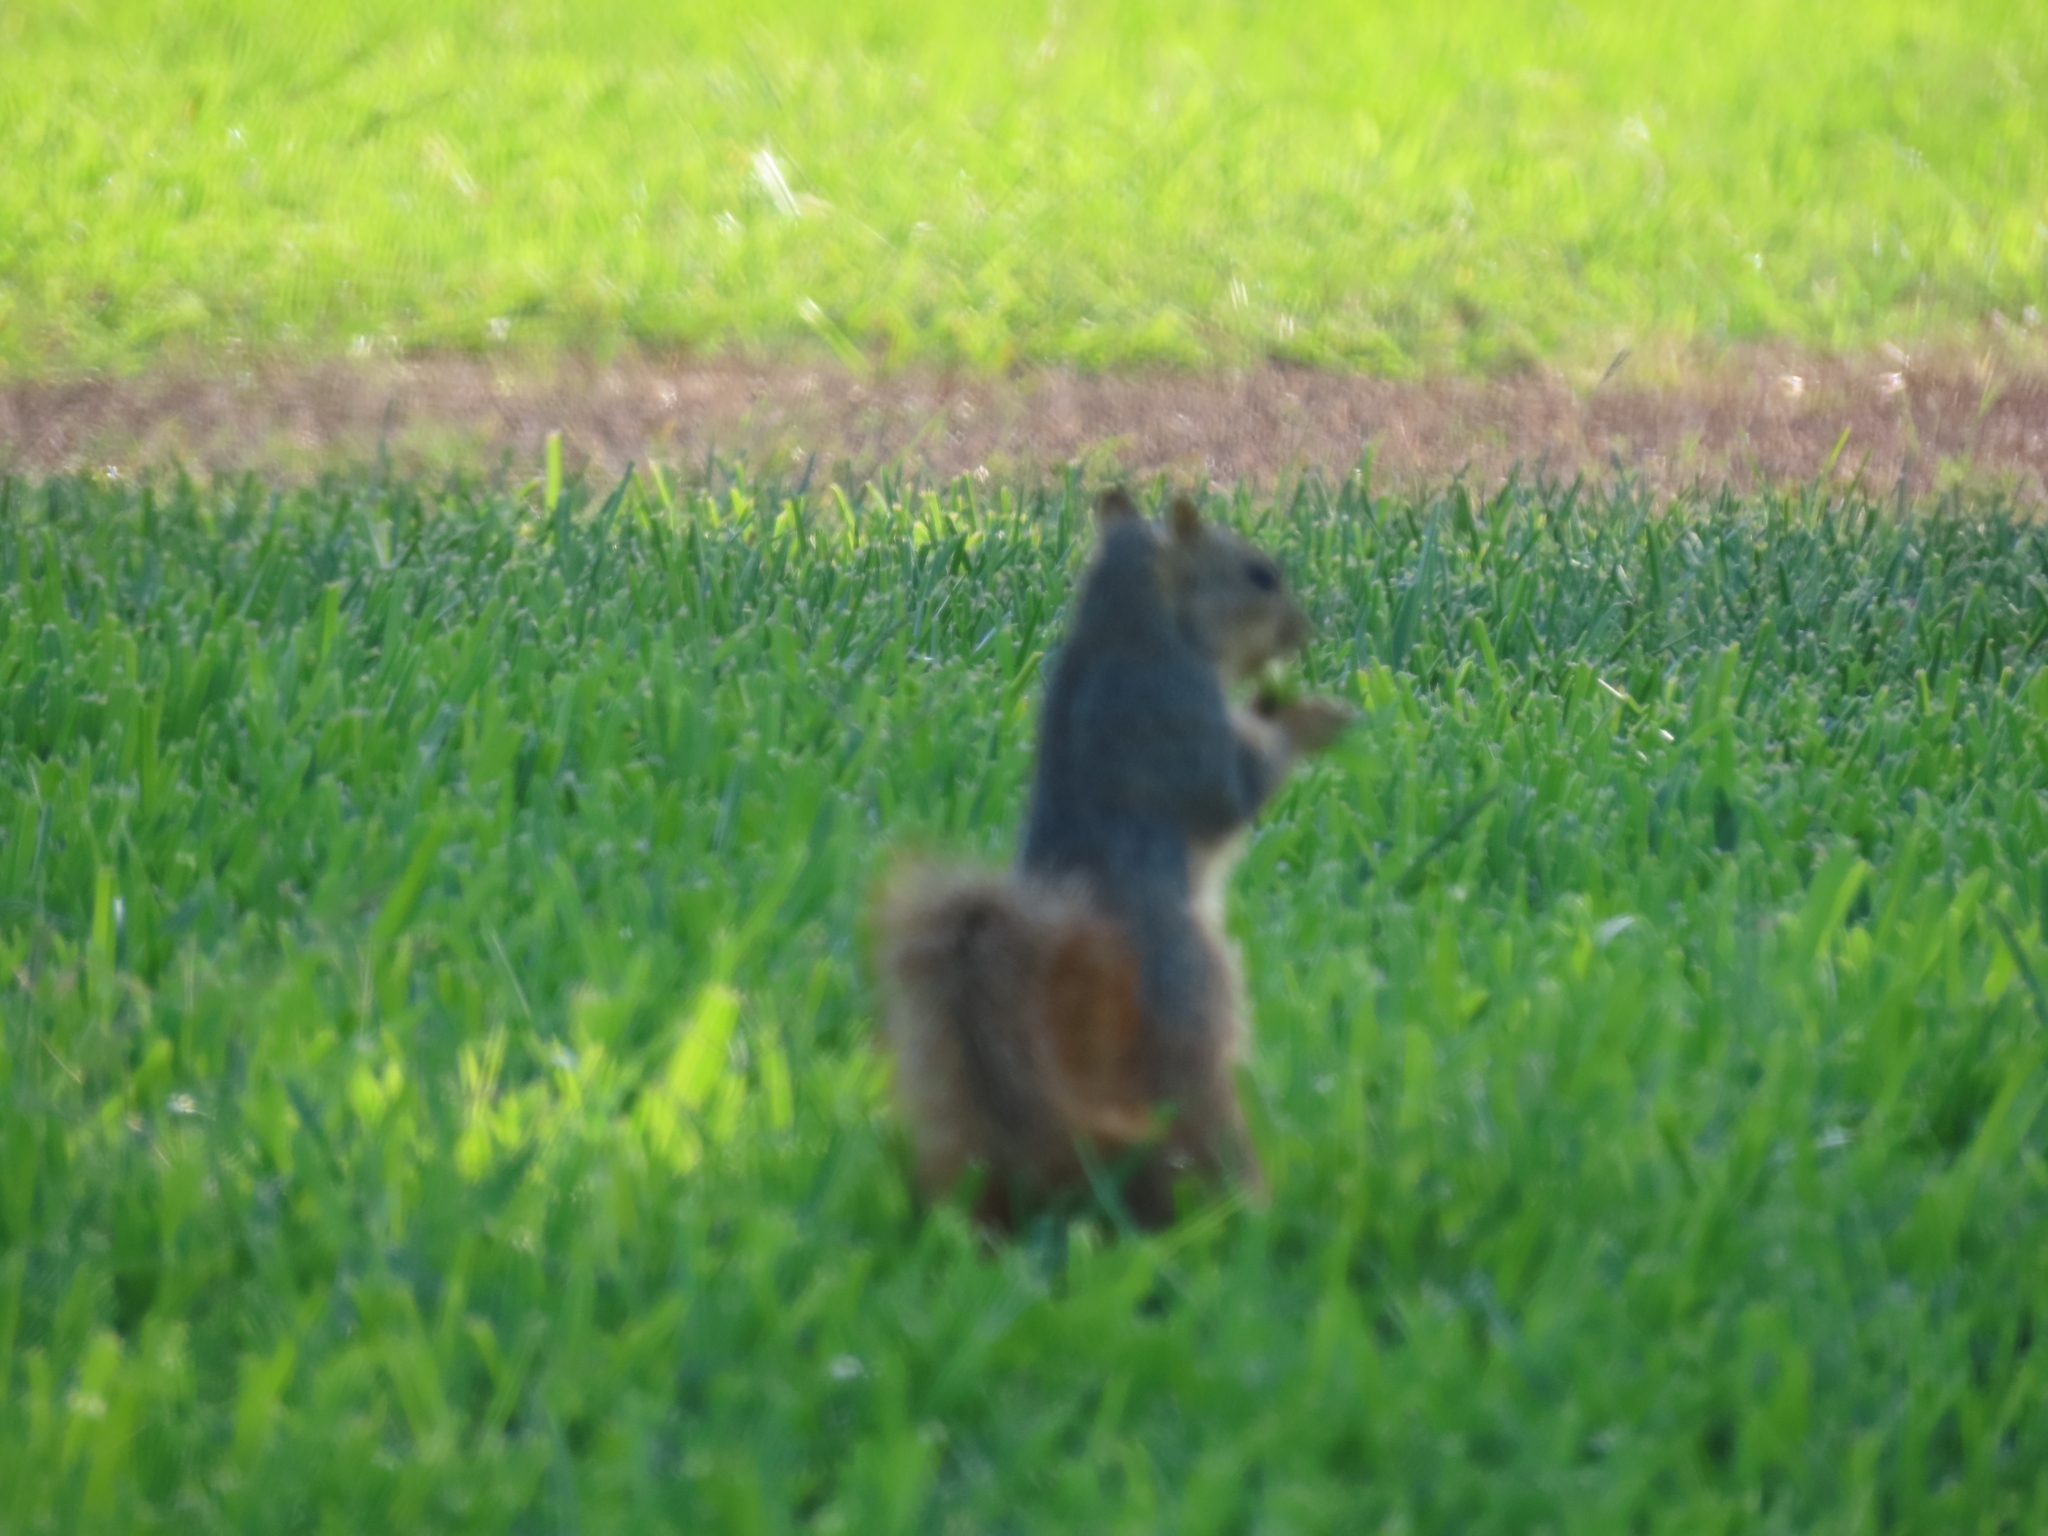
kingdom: Animalia
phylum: Chordata
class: Mammalia
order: Rodentia
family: Sciuridae
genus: Sciurus
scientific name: Sciurus niger
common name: Fox squirrel
